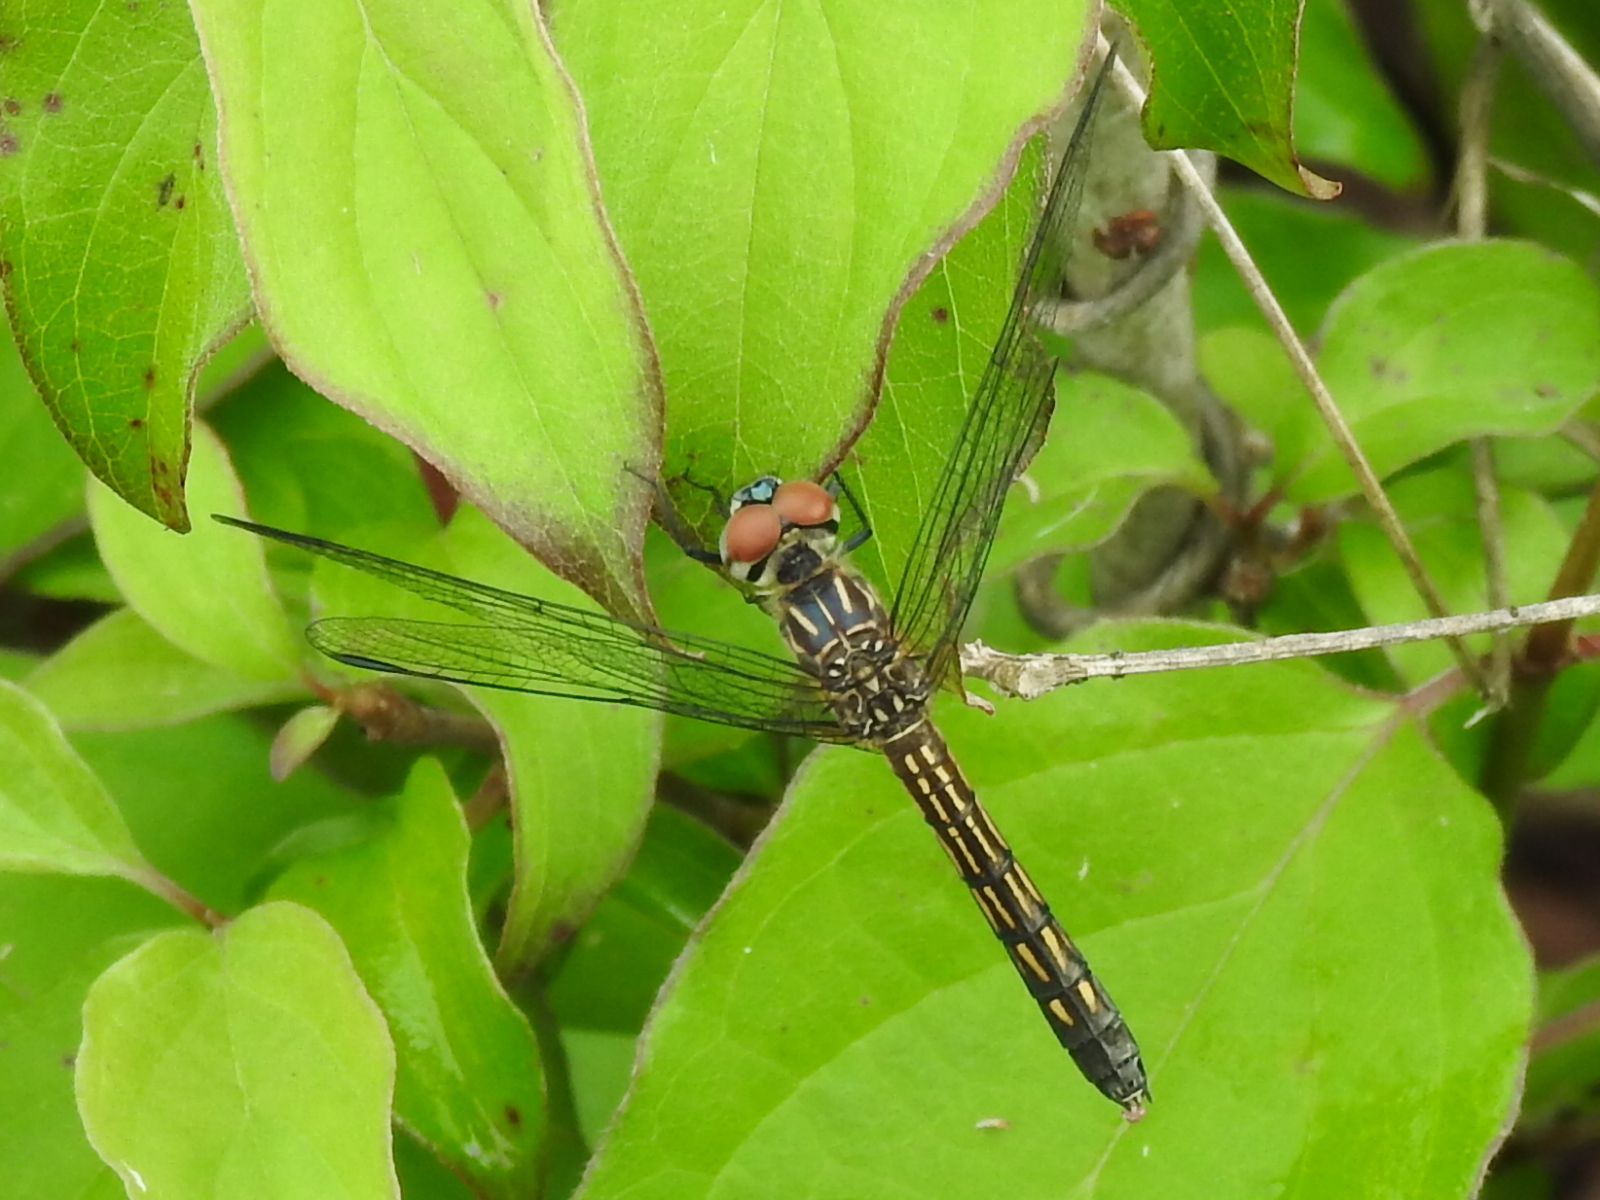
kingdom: Animalia
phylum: Arthropoda
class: Insecta
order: Odonata
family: Libellulidae
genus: Pachydiplax
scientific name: Pachydiplax longipennis
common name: Blue dasher
